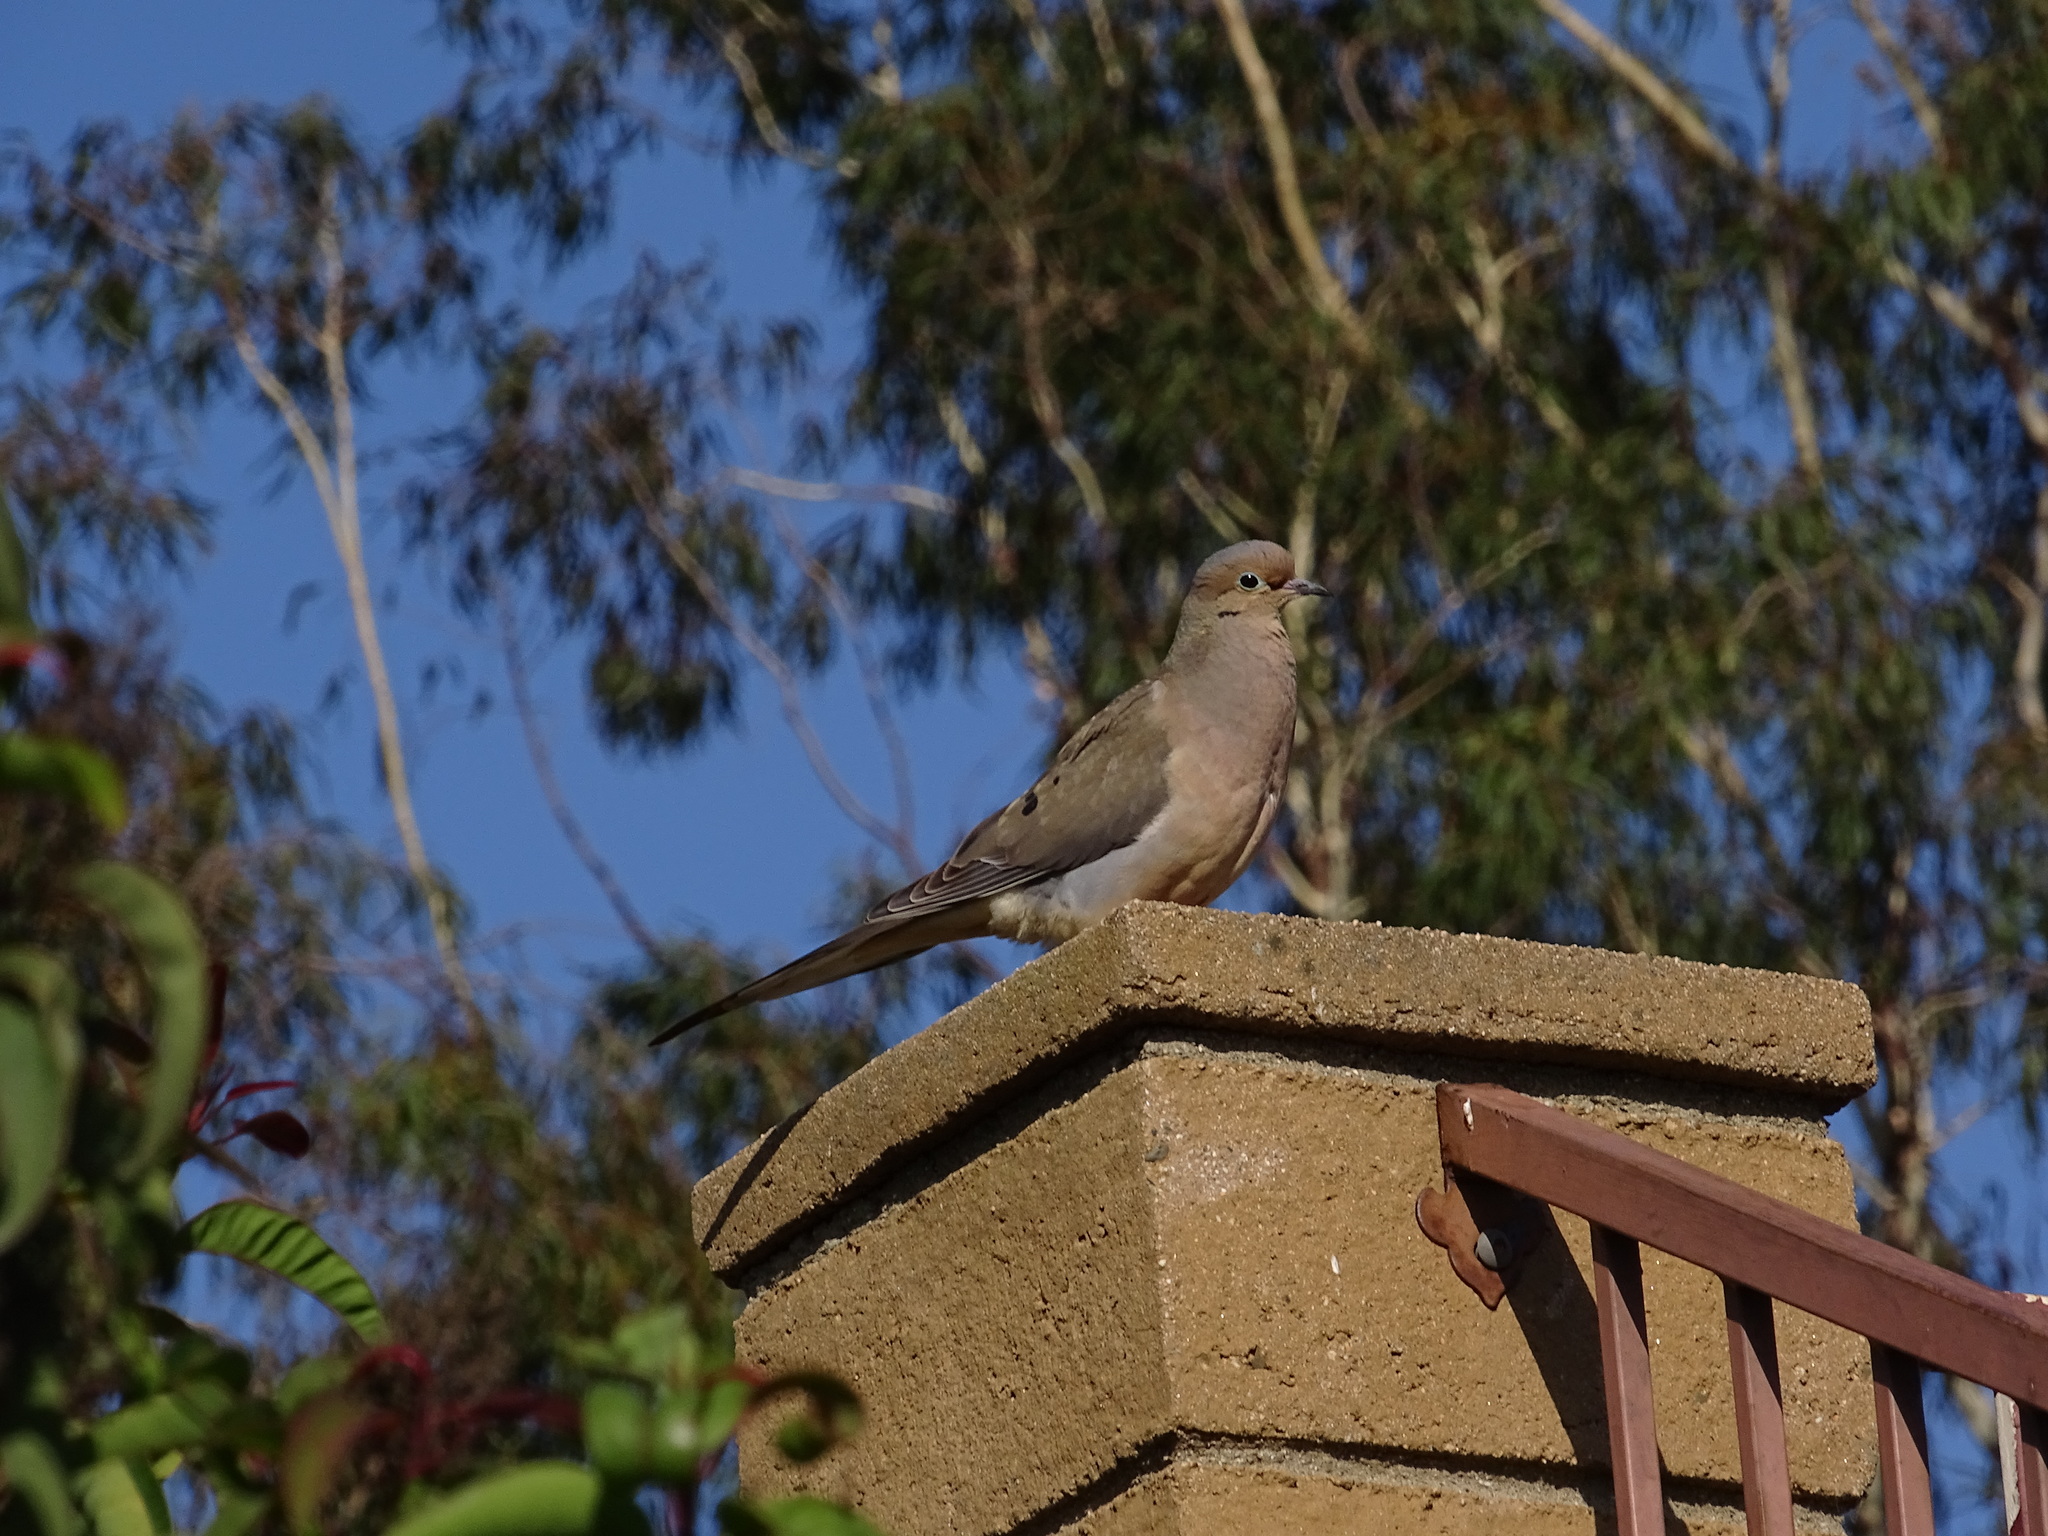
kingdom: Animalia
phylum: Chordata
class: Aves
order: Columbiformes
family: Columbidae
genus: Zenaida
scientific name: Zenaida macroura
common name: Mourning dove
